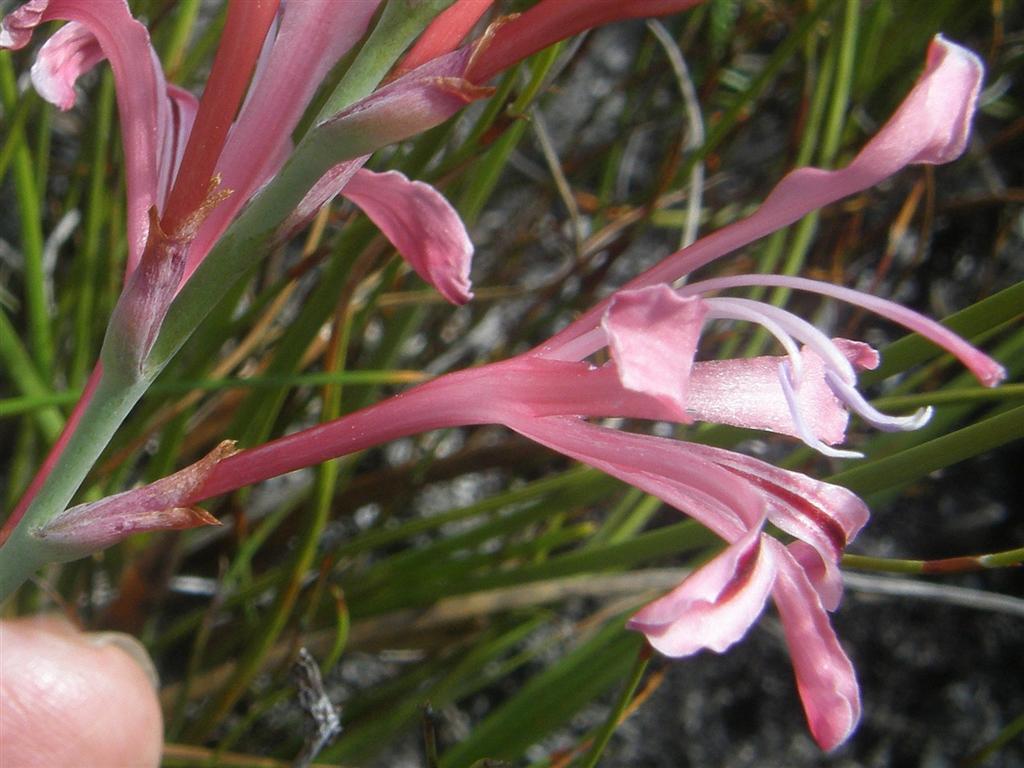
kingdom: Plantae
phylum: Tracheophyta
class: Liliopsida
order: Asparagales
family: Iridaceae
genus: Tritoniopsis
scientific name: Tritoniopsis dodii
